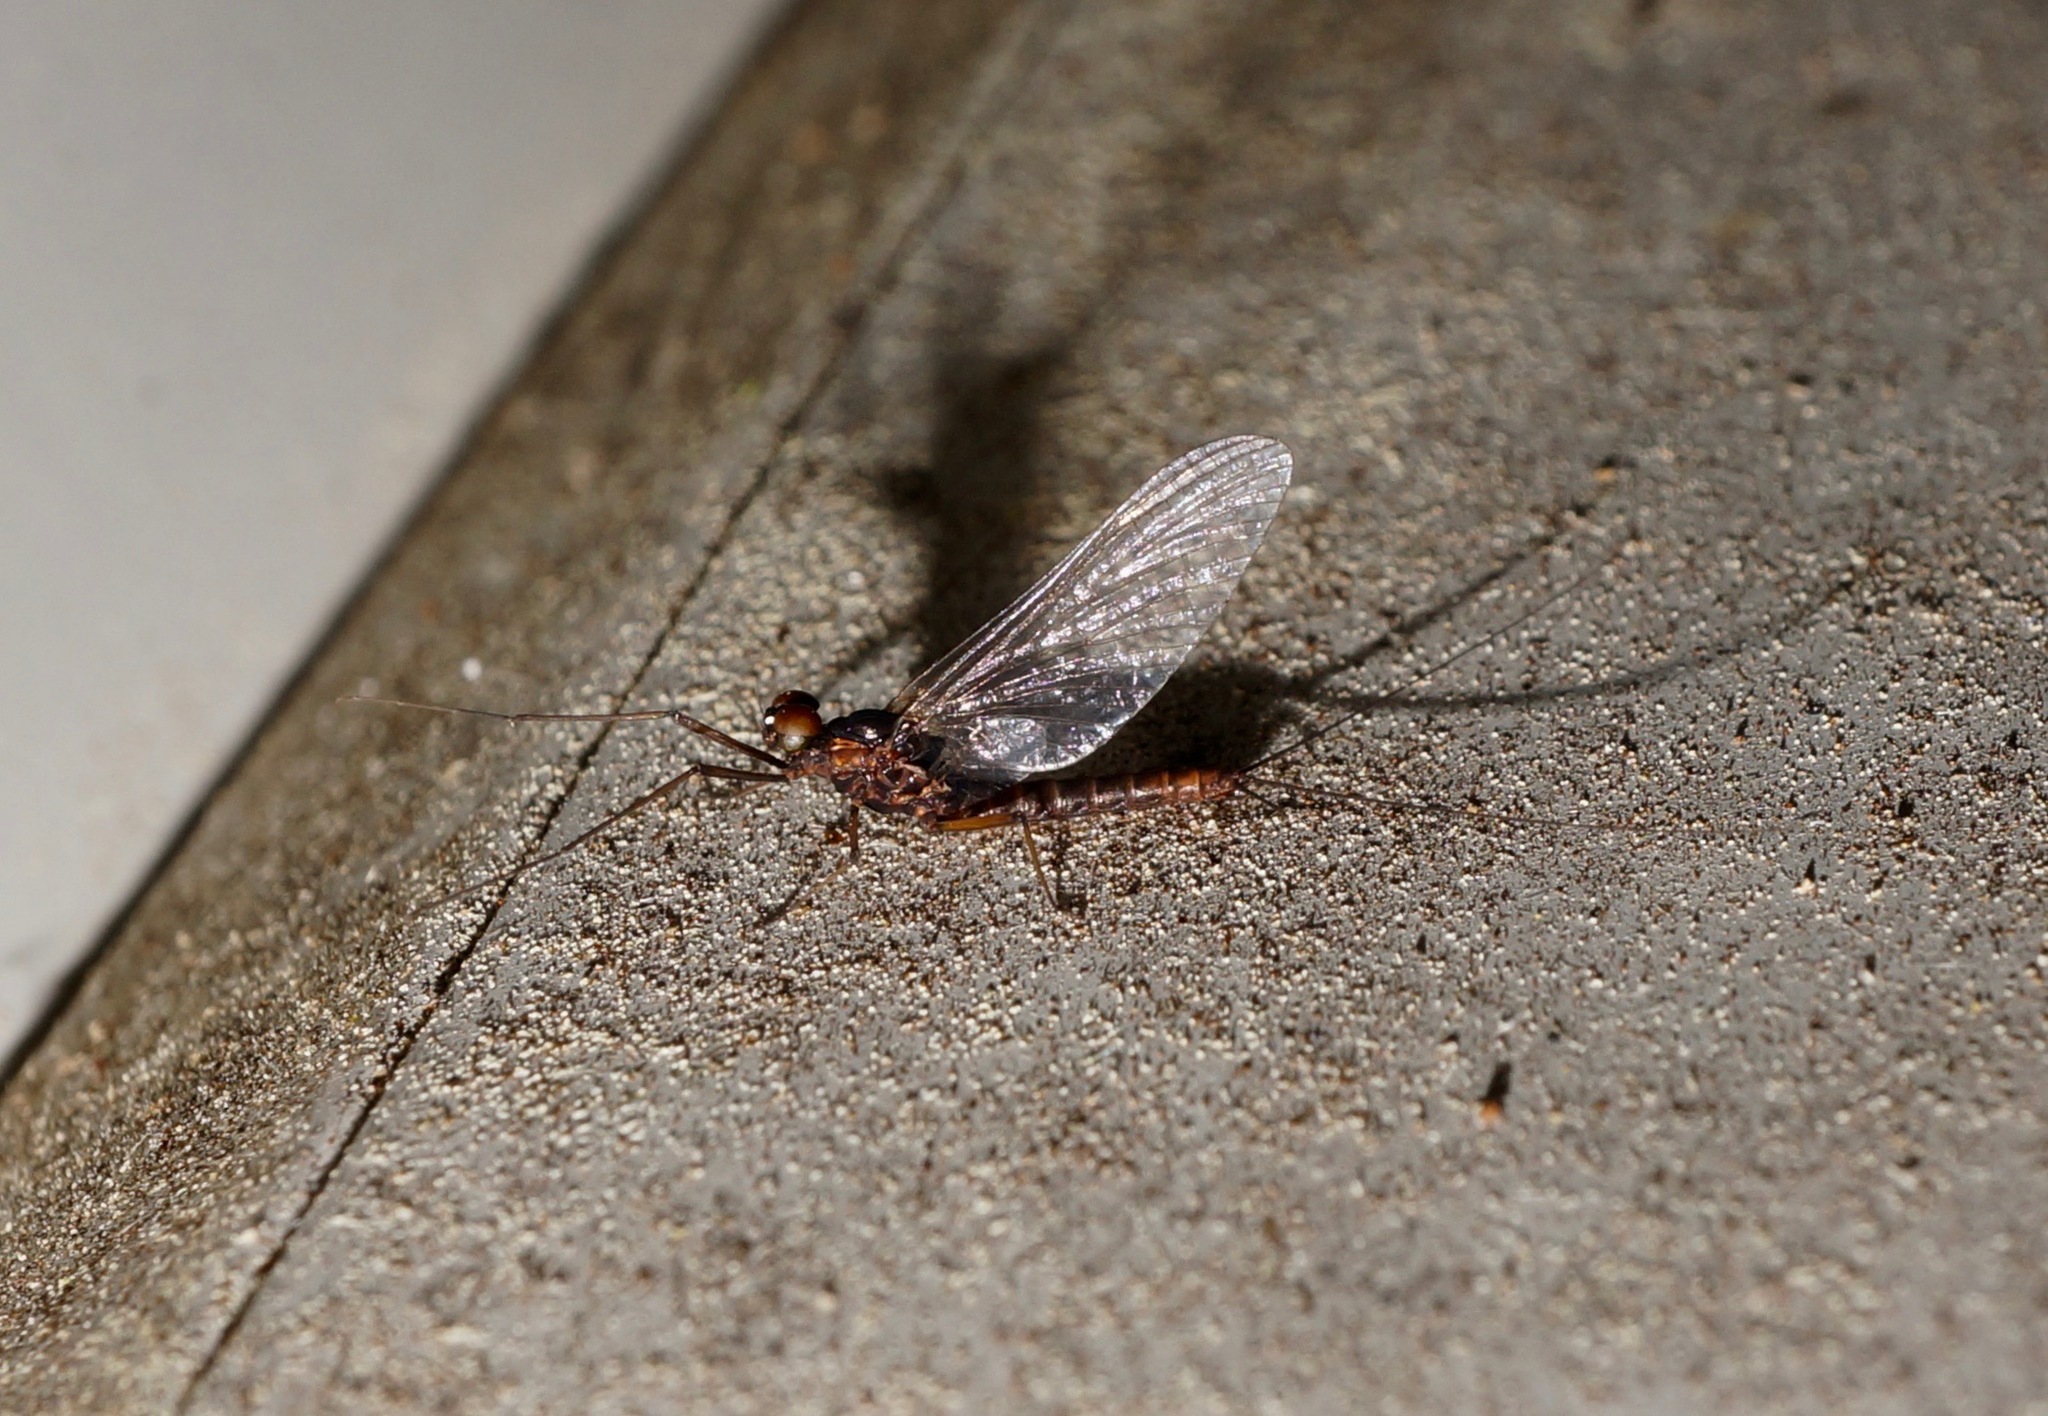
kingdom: Animalia
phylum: Arthropoda
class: Insecta
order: Ephemeroptera
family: Leptophlebiidae
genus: Neozephlebia
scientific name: Neozephlebia scita
